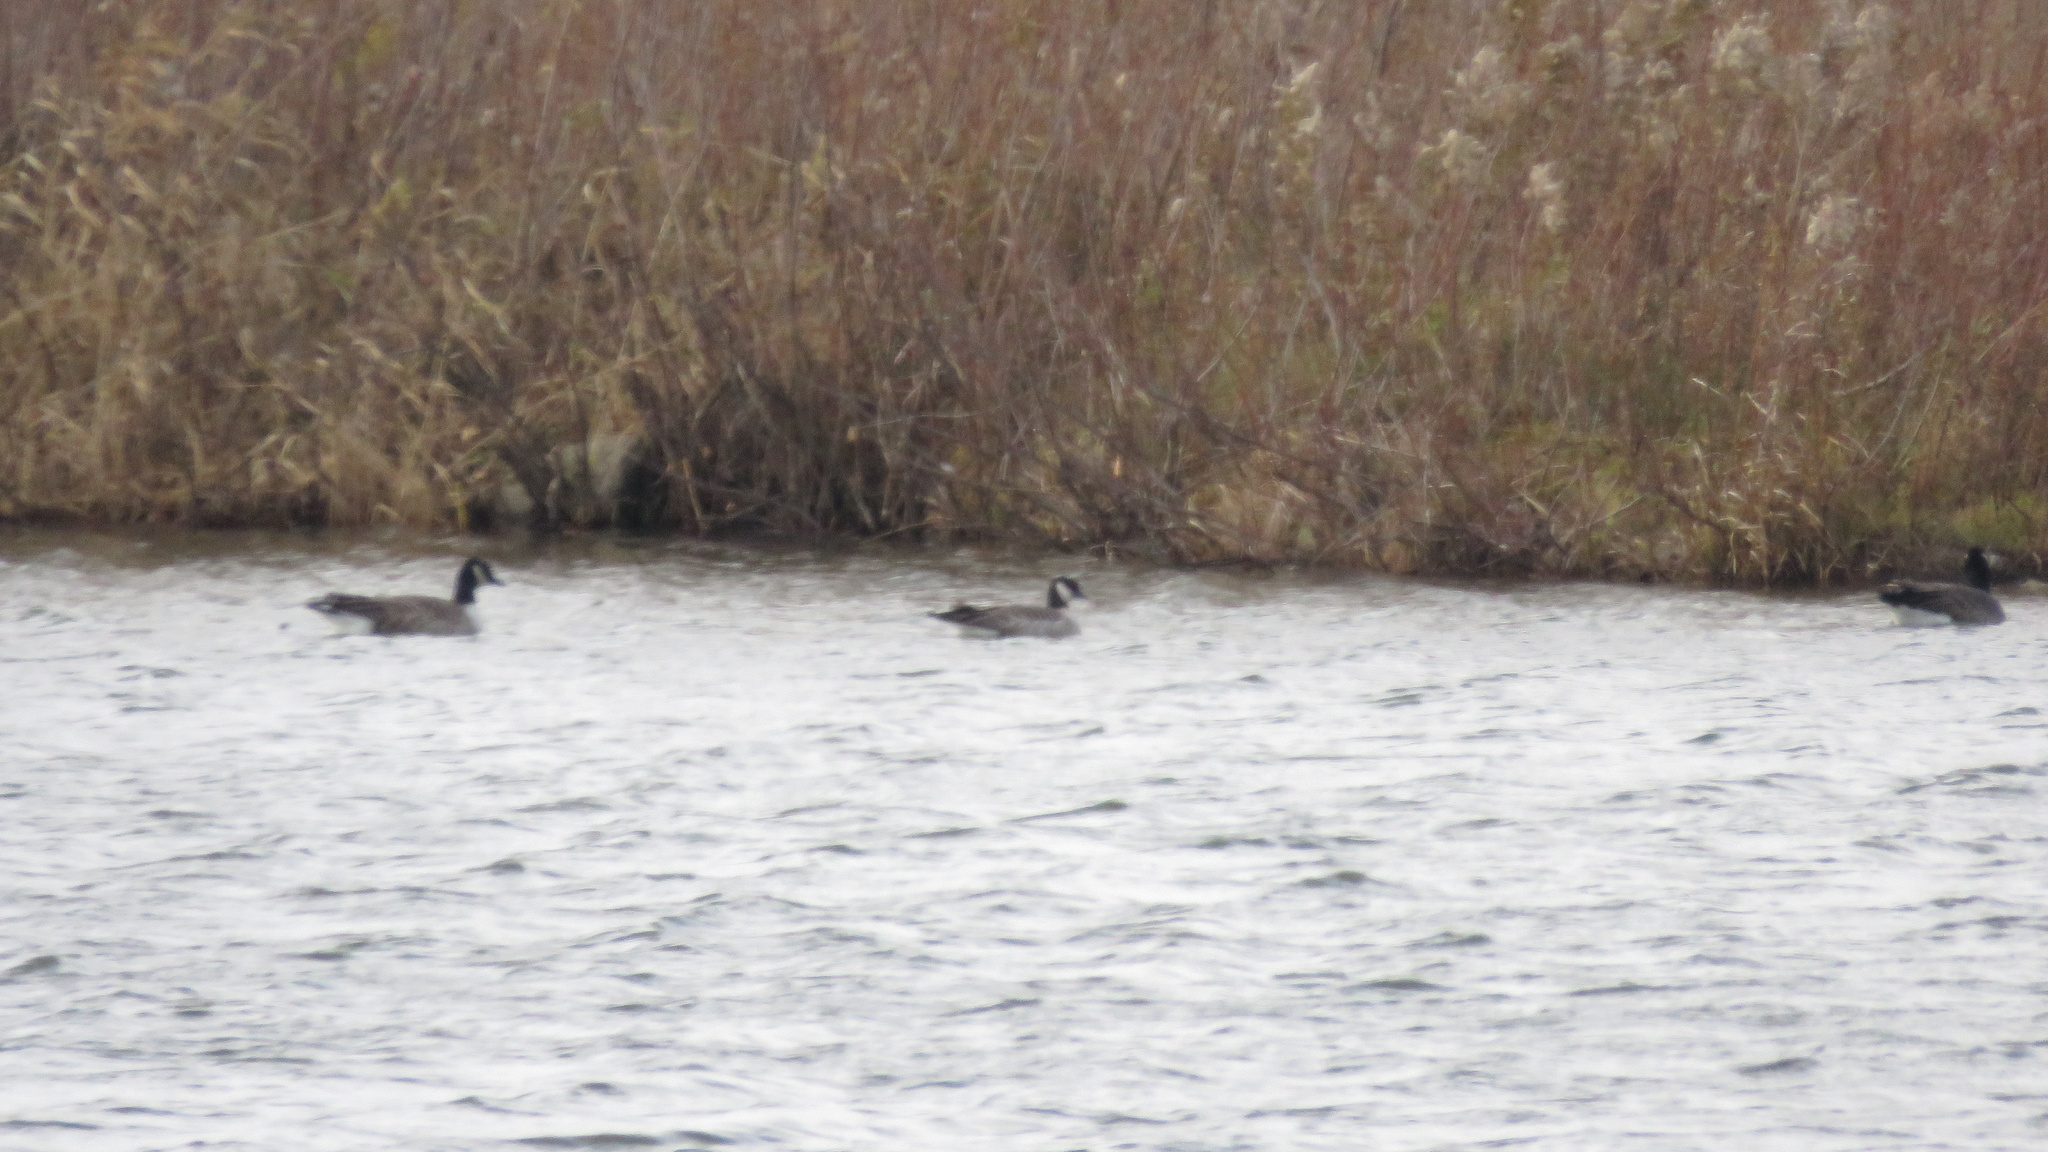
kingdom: Animalia
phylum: Chordata
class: Aves
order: Anseriformes
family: Anatidae
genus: Branta
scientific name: Branta hutchinsii
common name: Cackling goose
